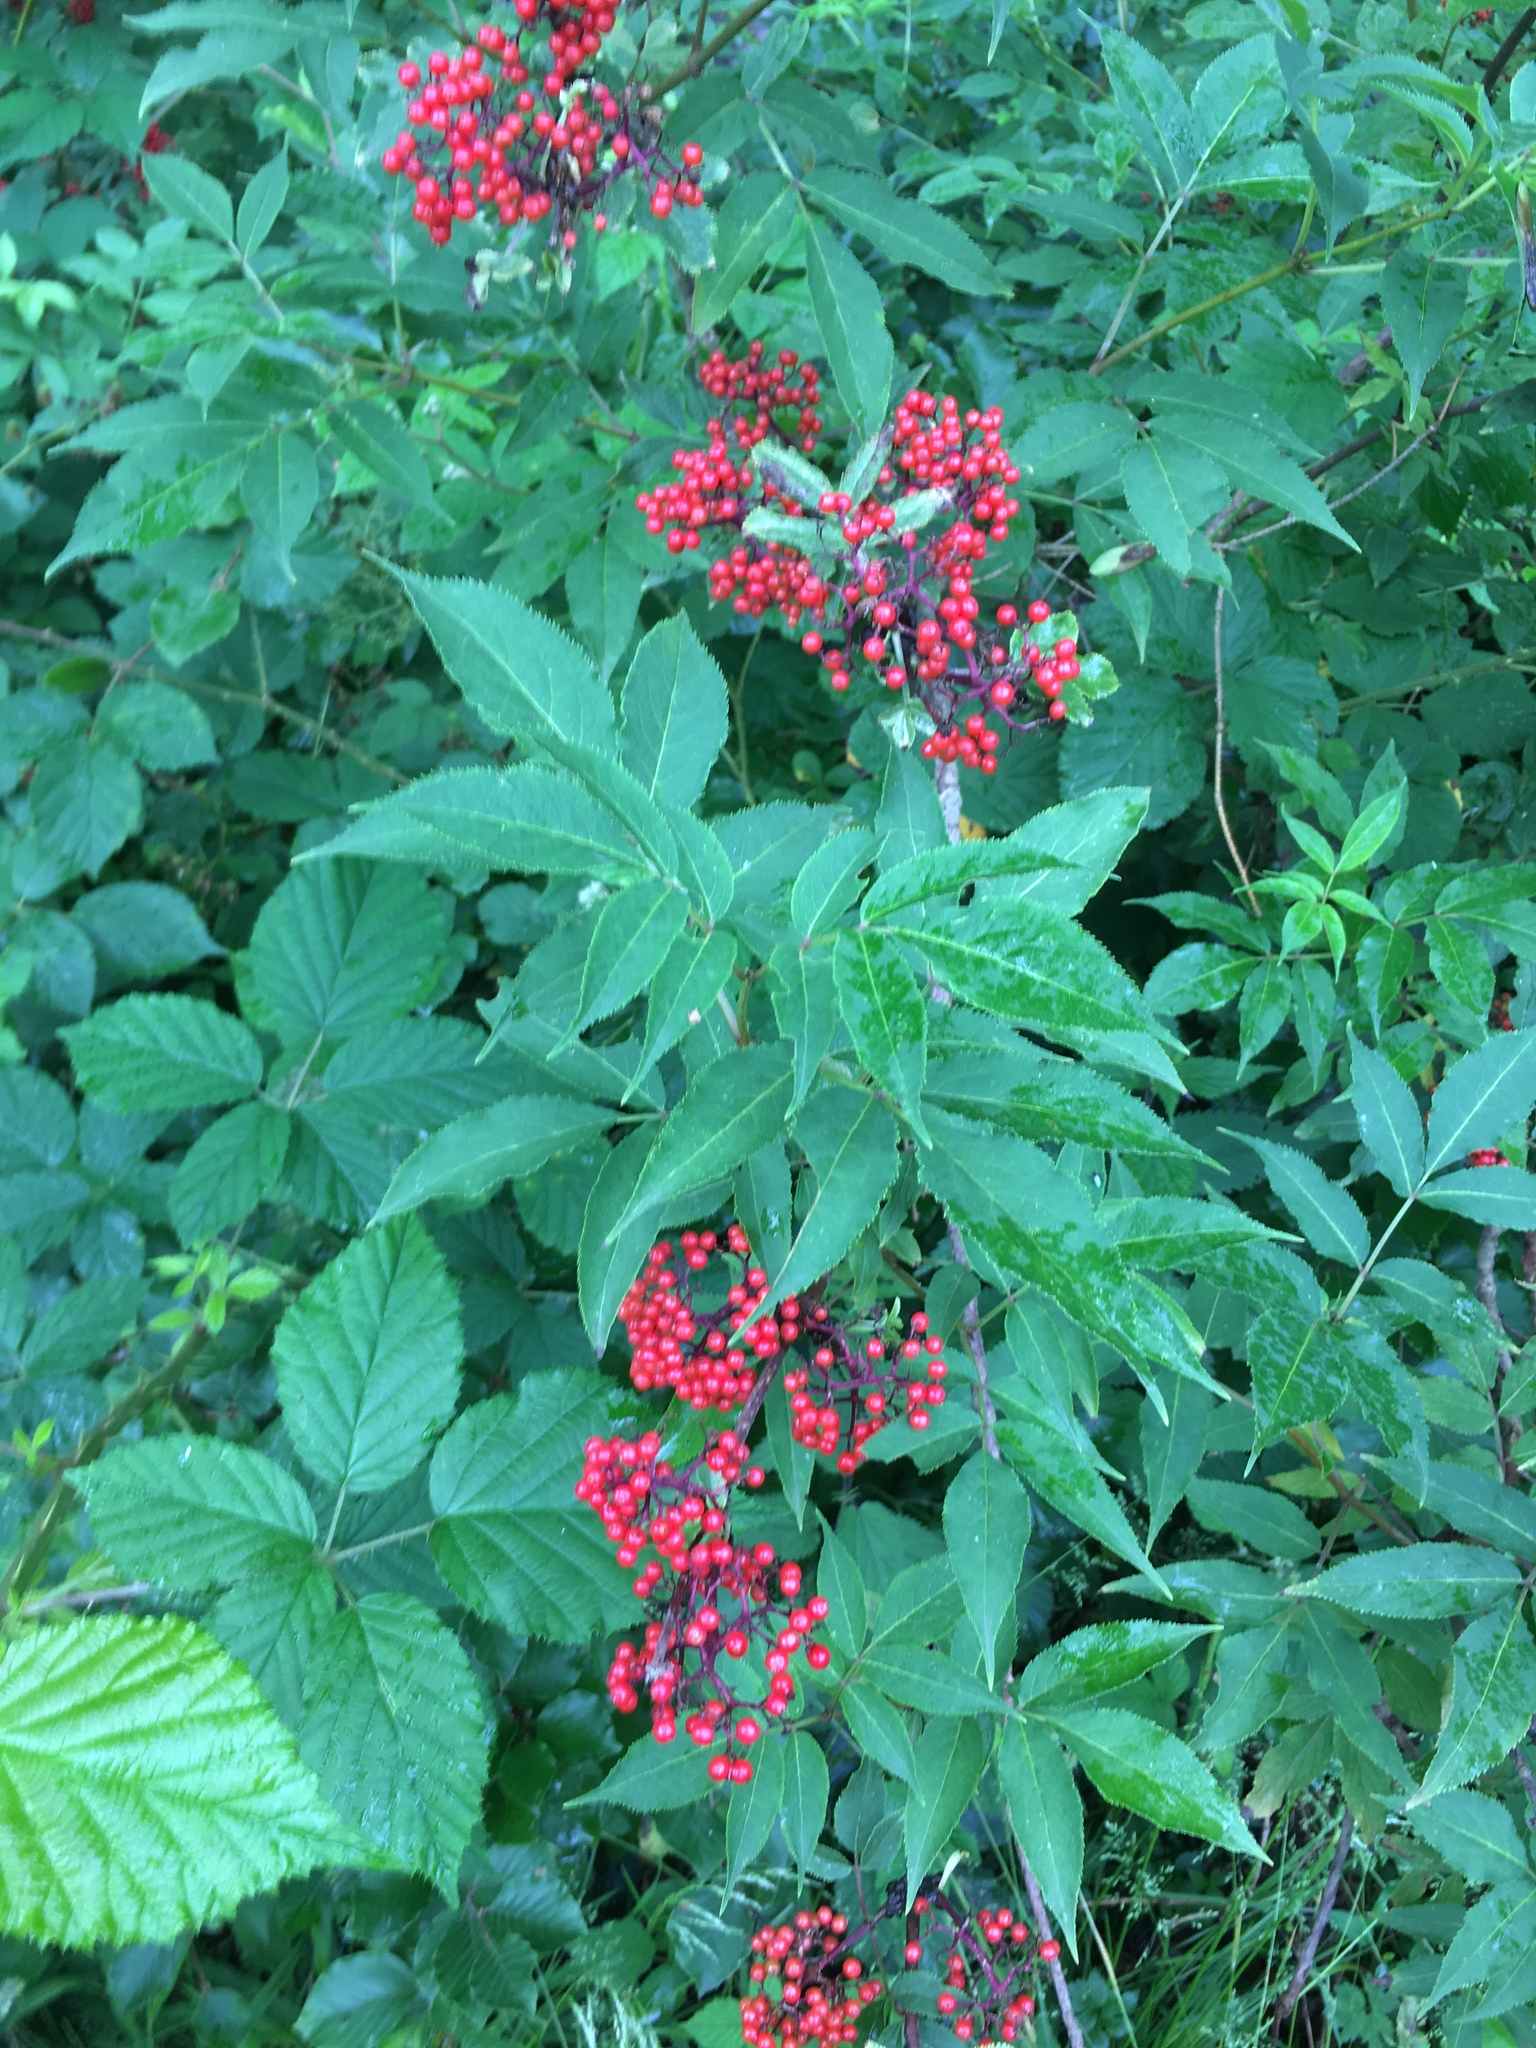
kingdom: Plantae
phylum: Tracheophyta
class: Magnoliopsida
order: Dipsacales
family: Viburnaceae
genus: Sambucus
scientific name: Sambucus racemosa
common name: Red-berried elder
